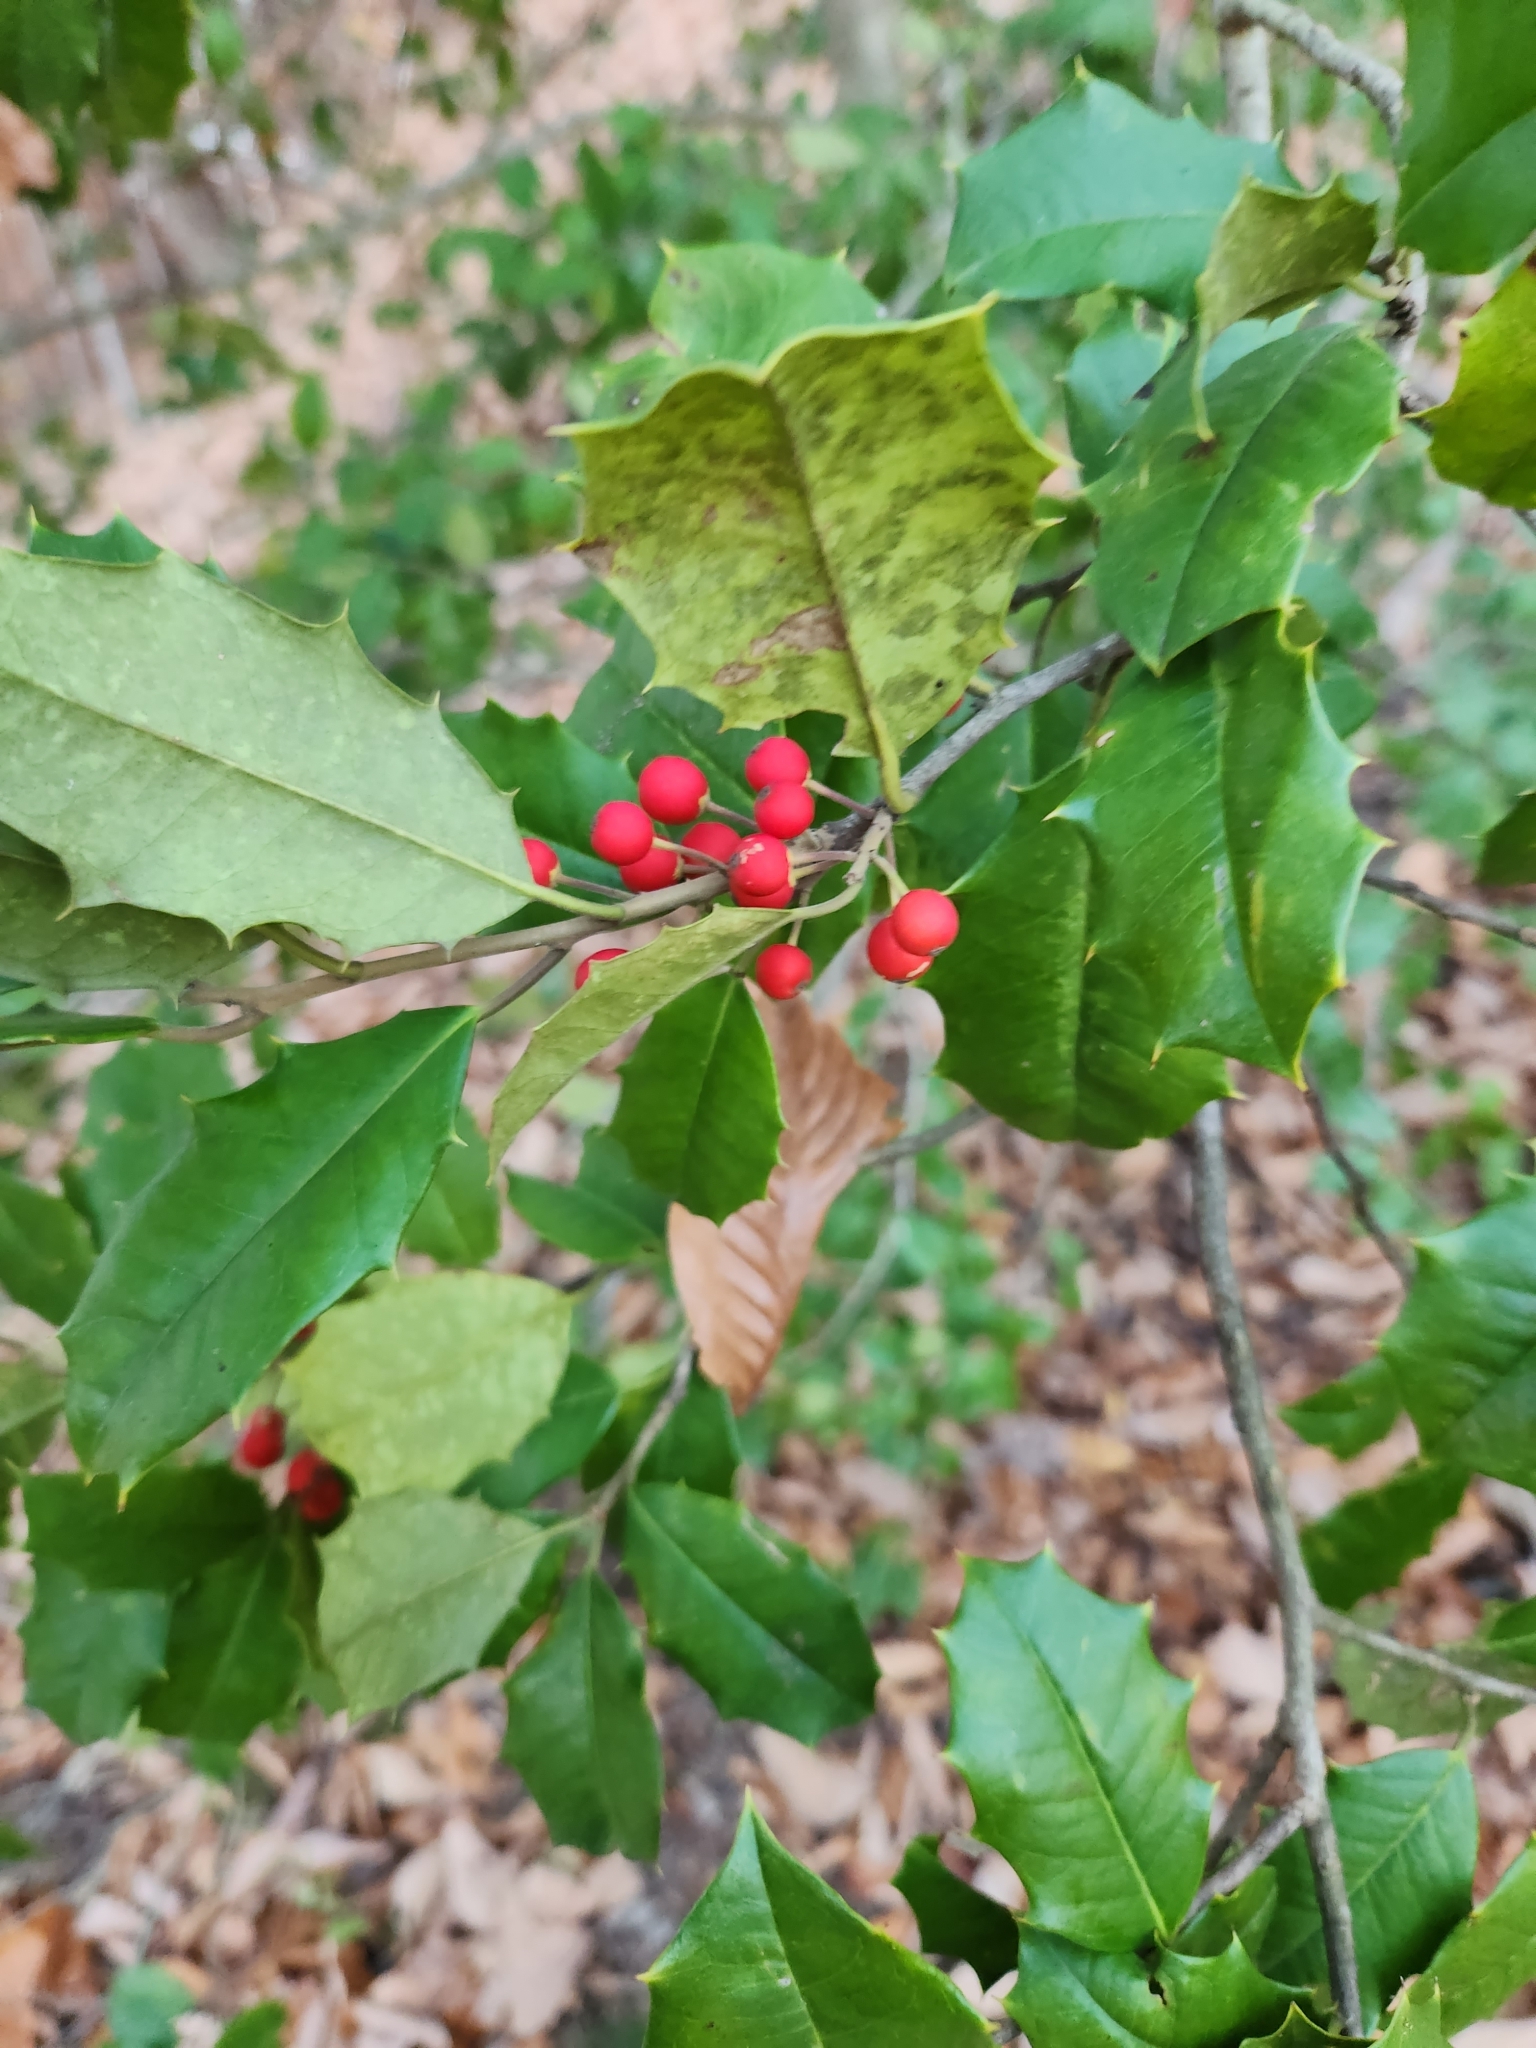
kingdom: Plantae
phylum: Tracheophyta
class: Magnoliopsida
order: Aquifoliales
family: Aquifoliaceae
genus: Ilex
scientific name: Ilex opaca
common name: American holly
